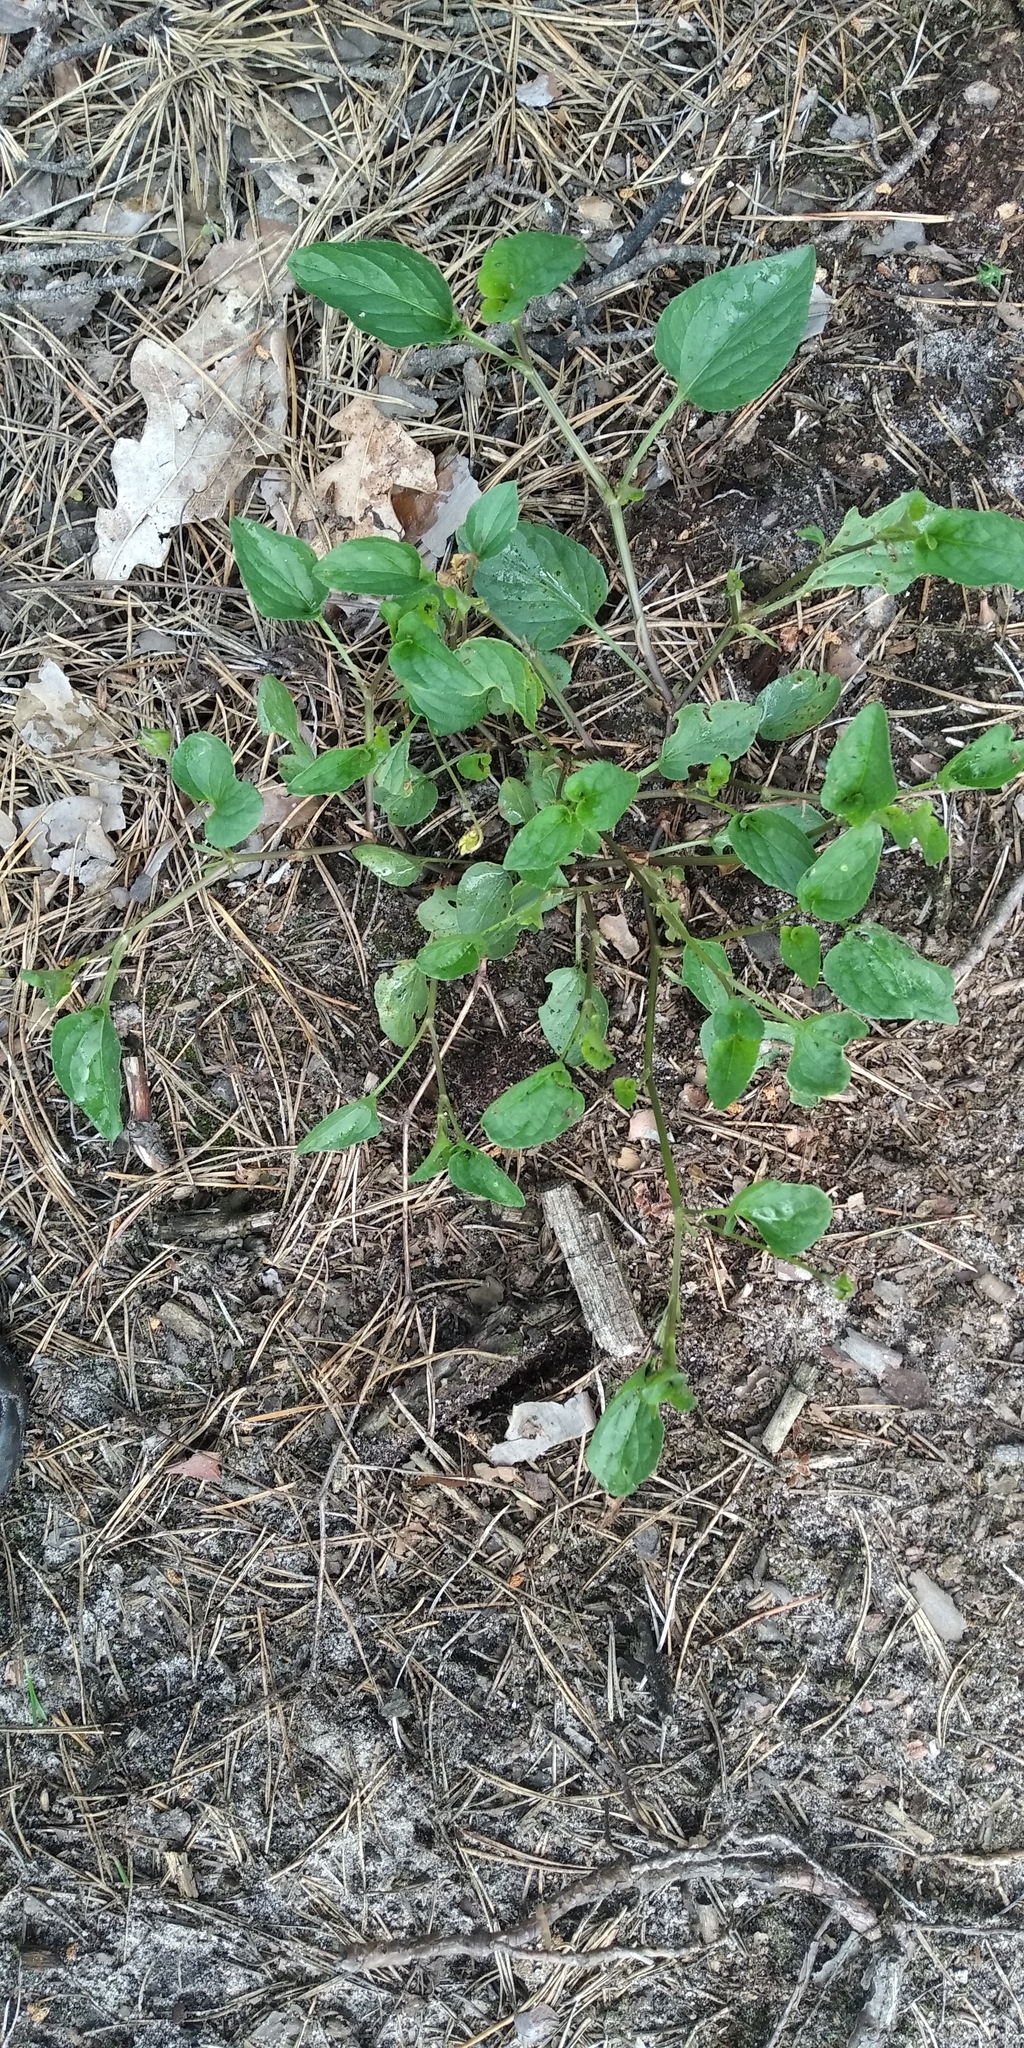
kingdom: Plantae
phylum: Tracheophyta
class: Magnoliopsida
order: Malpighiales
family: Violaceae
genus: Viola
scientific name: Viola canina
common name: Heath dog-violet
